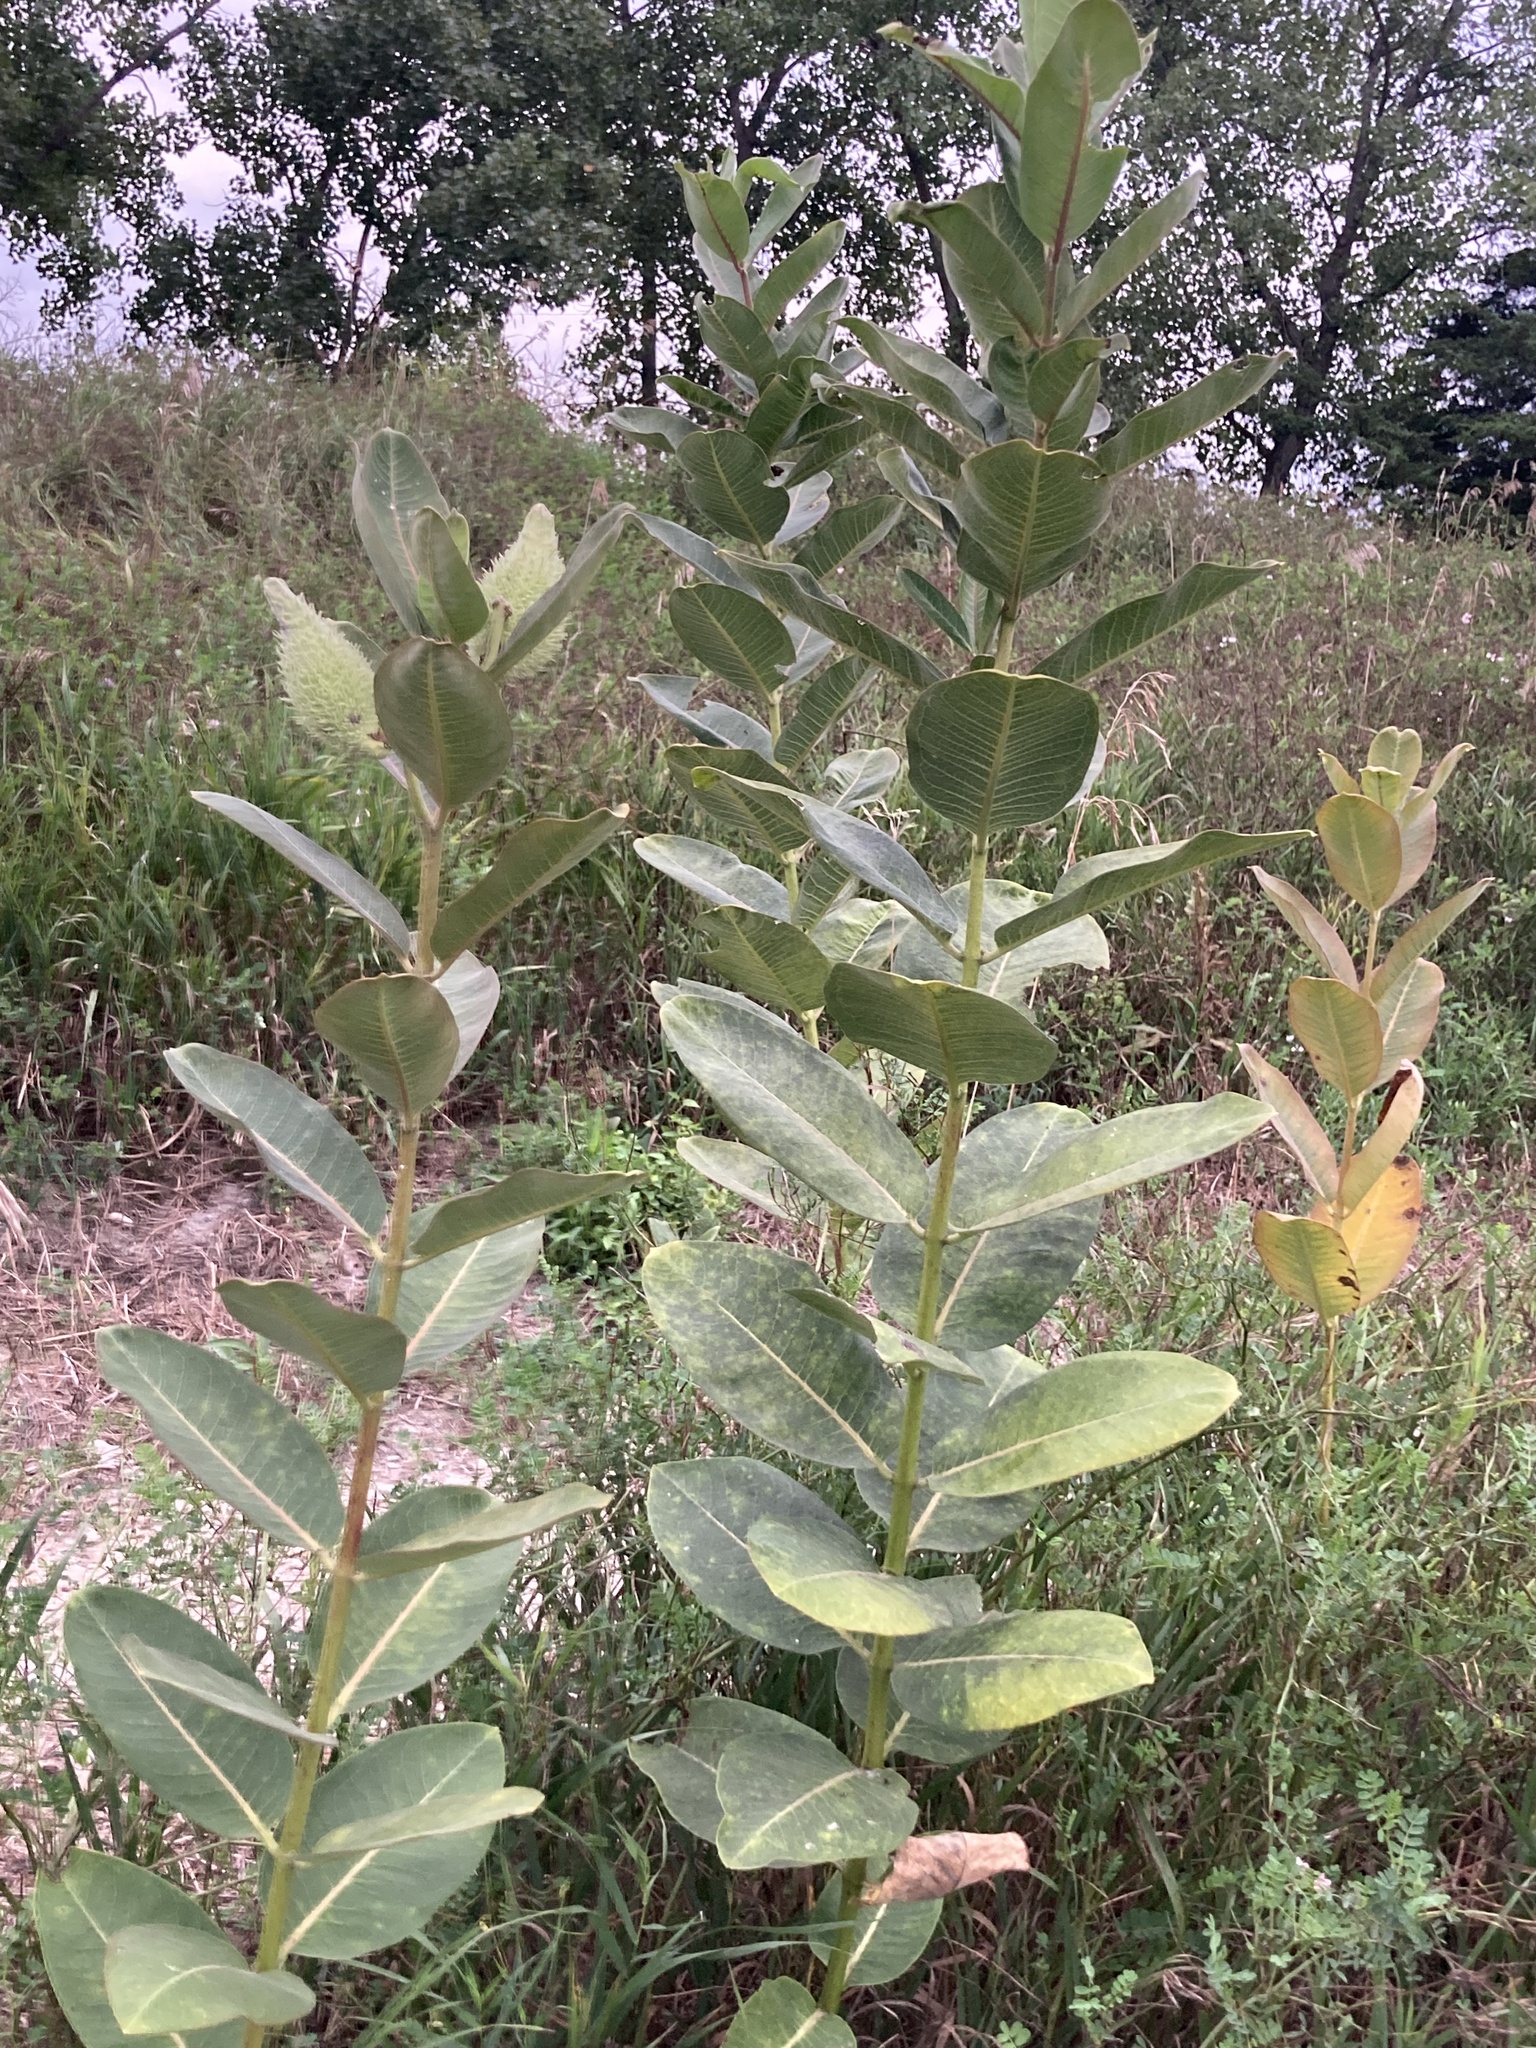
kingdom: Plantae
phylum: Tracheophyta
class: Magnoliopsida
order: Gentianales
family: Apocynaceae
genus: Asclepias
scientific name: Asclepias syriaca
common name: Common milkweed
